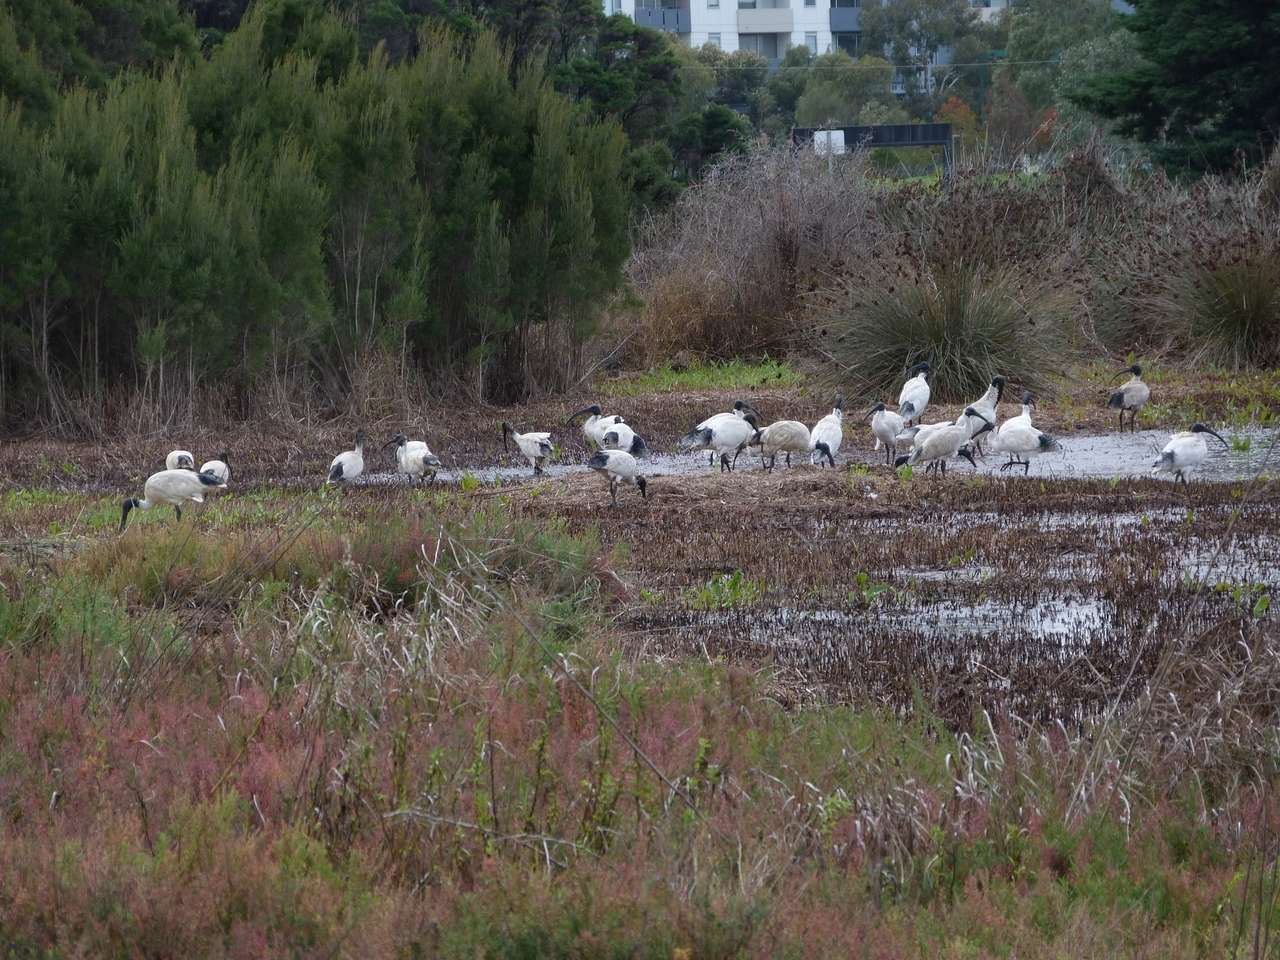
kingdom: Animalia
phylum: Chordata
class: Aves
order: Pelecaniformes
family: Threskiornithidae
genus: Threskiornis
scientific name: Threskiornis molucca
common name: Australian white ibis
